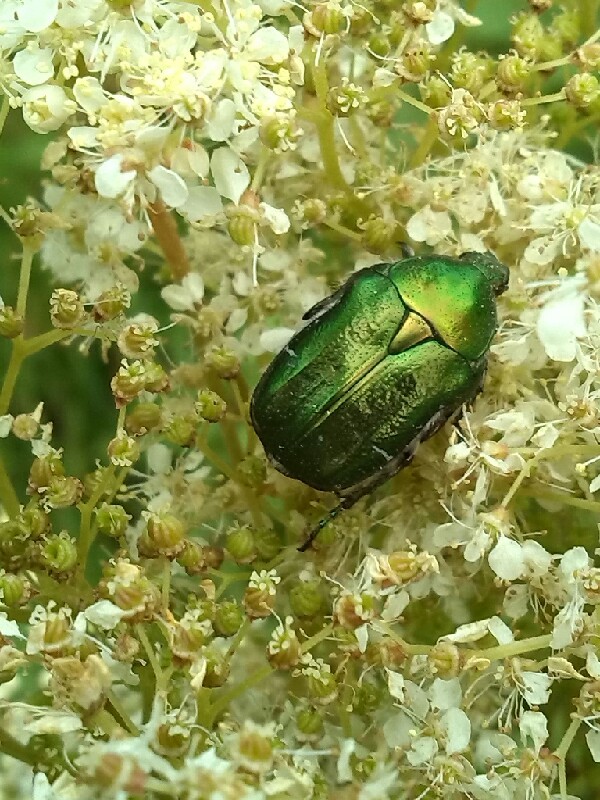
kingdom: Animalia
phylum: Arthropoda
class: Insecta
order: Coleoptera
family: Scarabaeidae
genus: Cetonia
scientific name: Cetonia aurata
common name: Rose chafer
